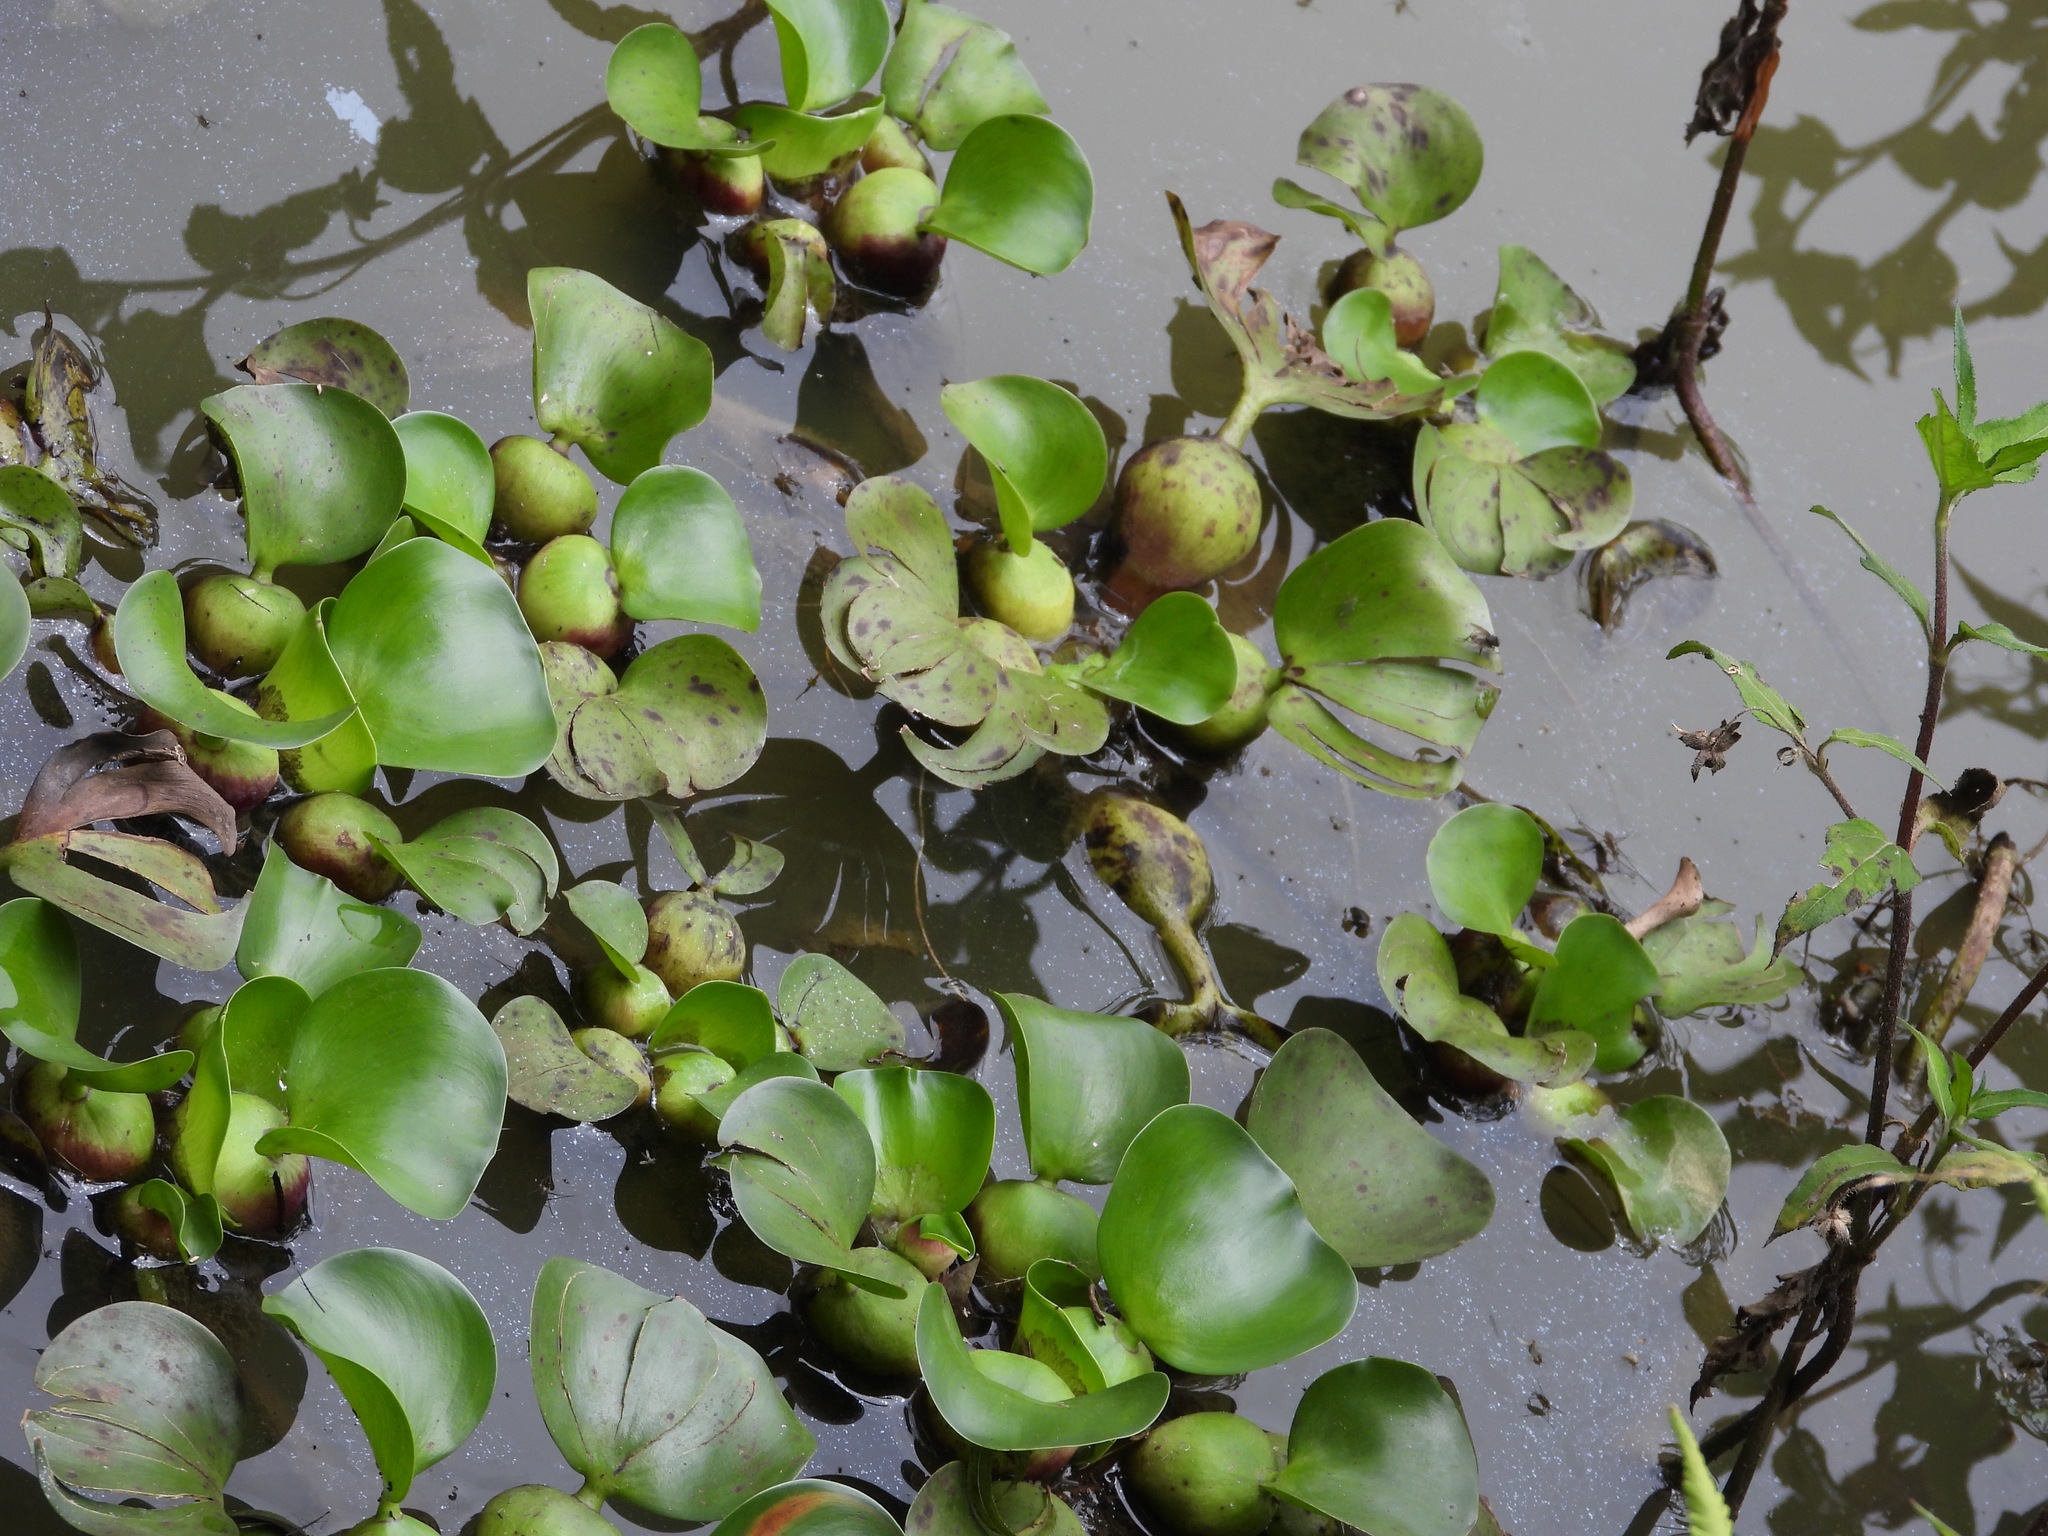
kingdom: Plantae
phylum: Tracheophyta
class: Liliopsida
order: Commelinales
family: Pontederiaceae
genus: Pontederia
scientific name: Pontederia crassipes
